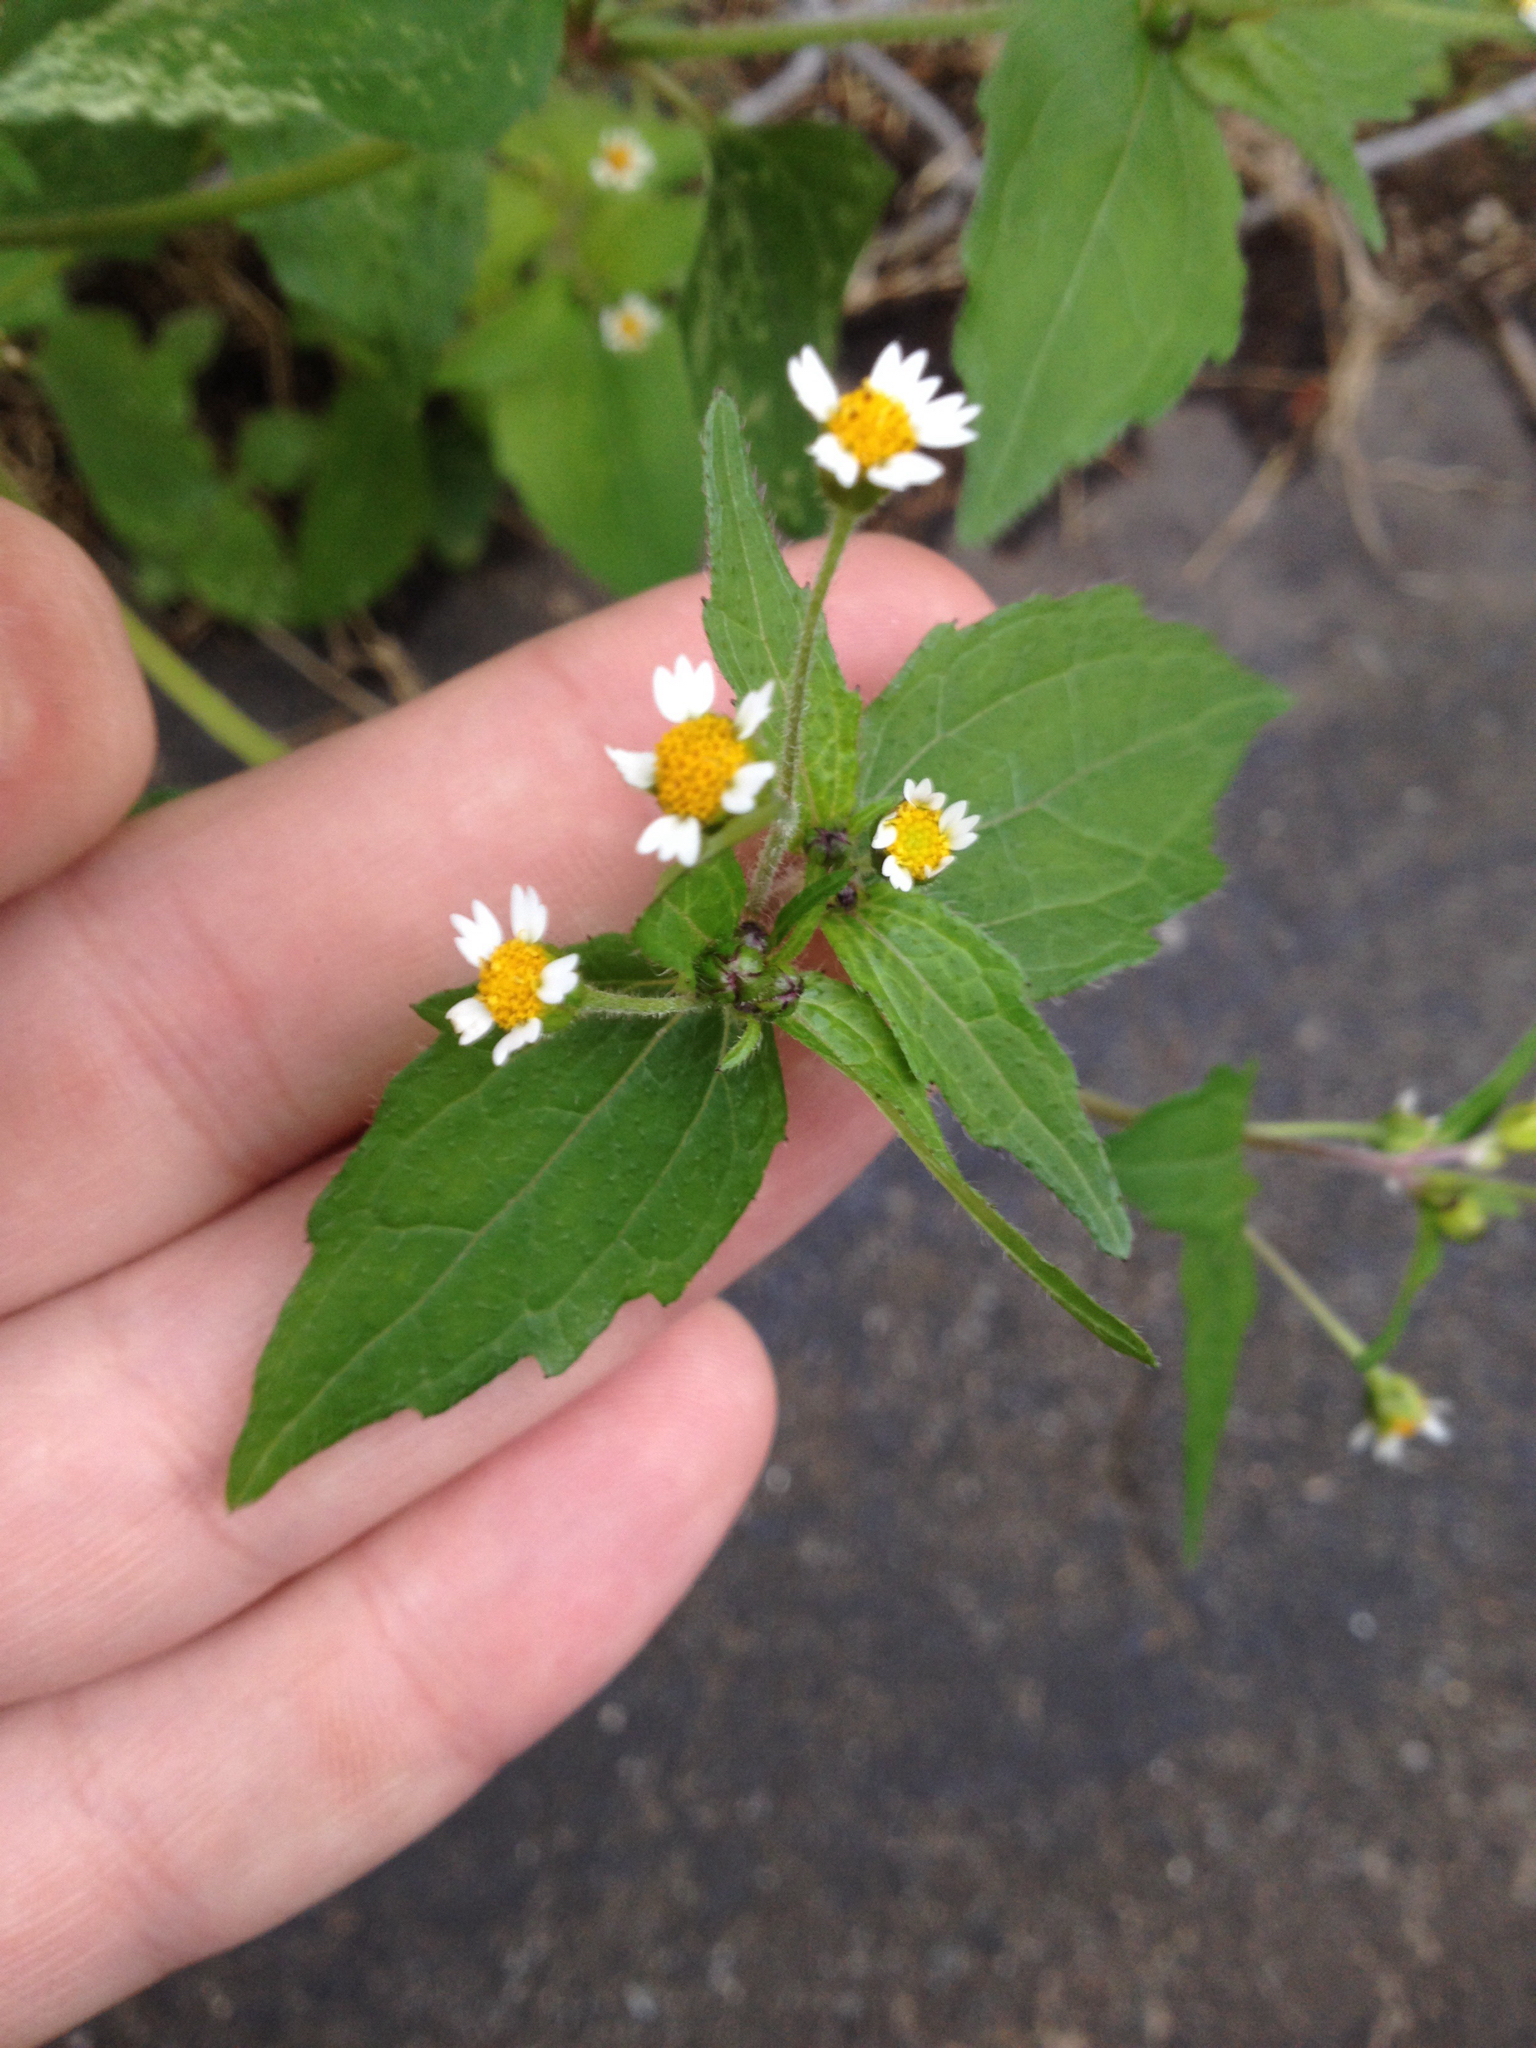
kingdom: Plantae
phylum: Tracheophyta
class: Magnoliopsida
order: Asterales
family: Asteraceae
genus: Galinsoga
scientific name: Galinsoga quadriradiata
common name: Shaggy soldier
